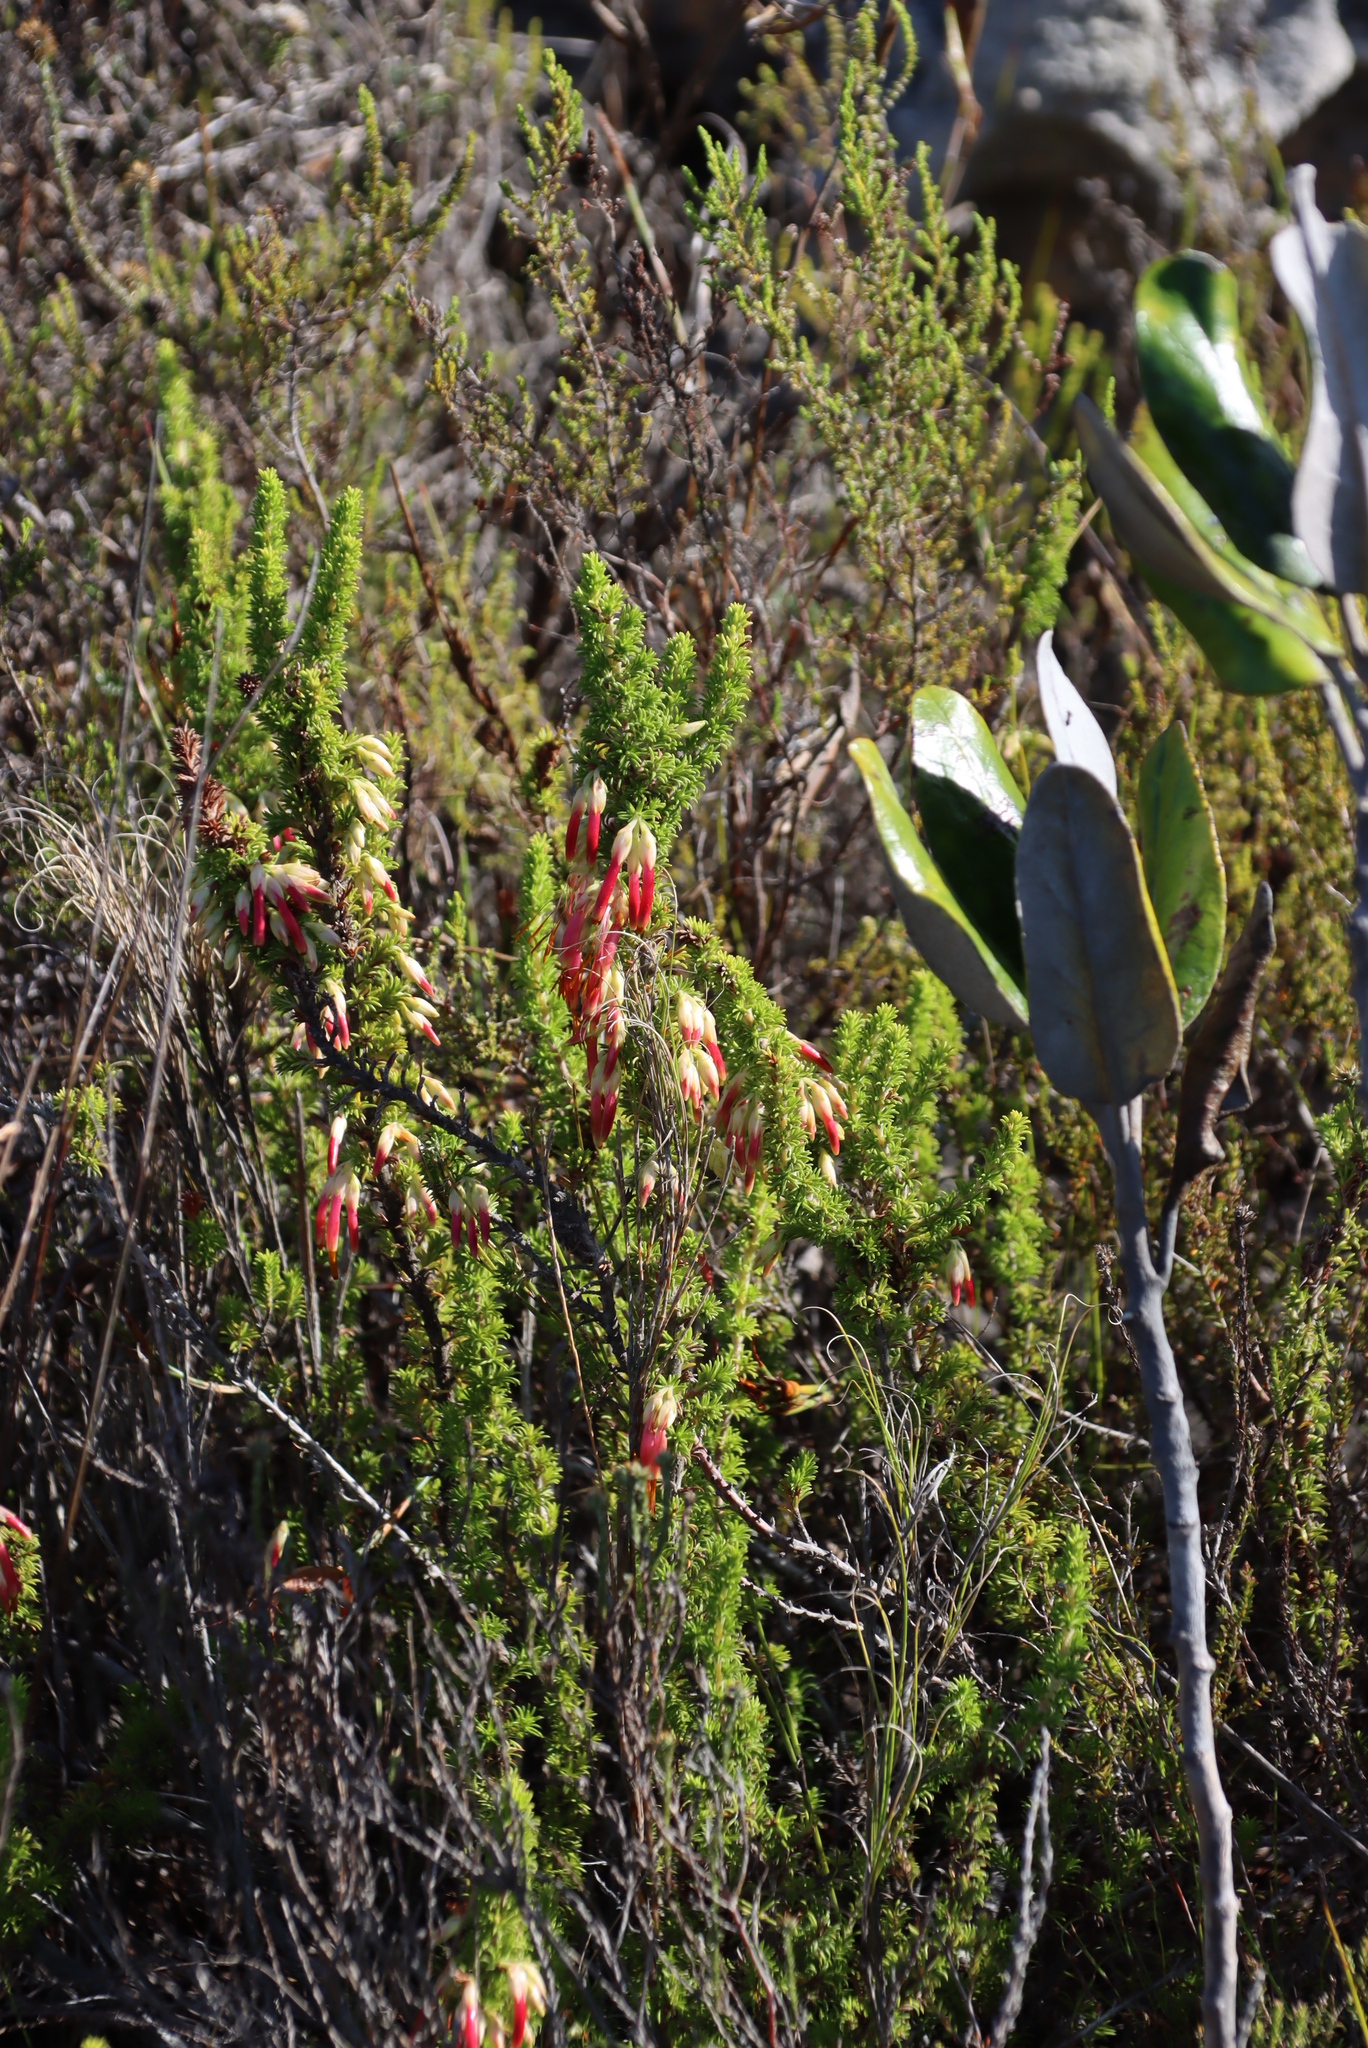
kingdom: Plantae
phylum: Tracheophyta
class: Magnoliopsida
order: Ericales
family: Ericaceae
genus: Erica
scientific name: Erica coccinea
